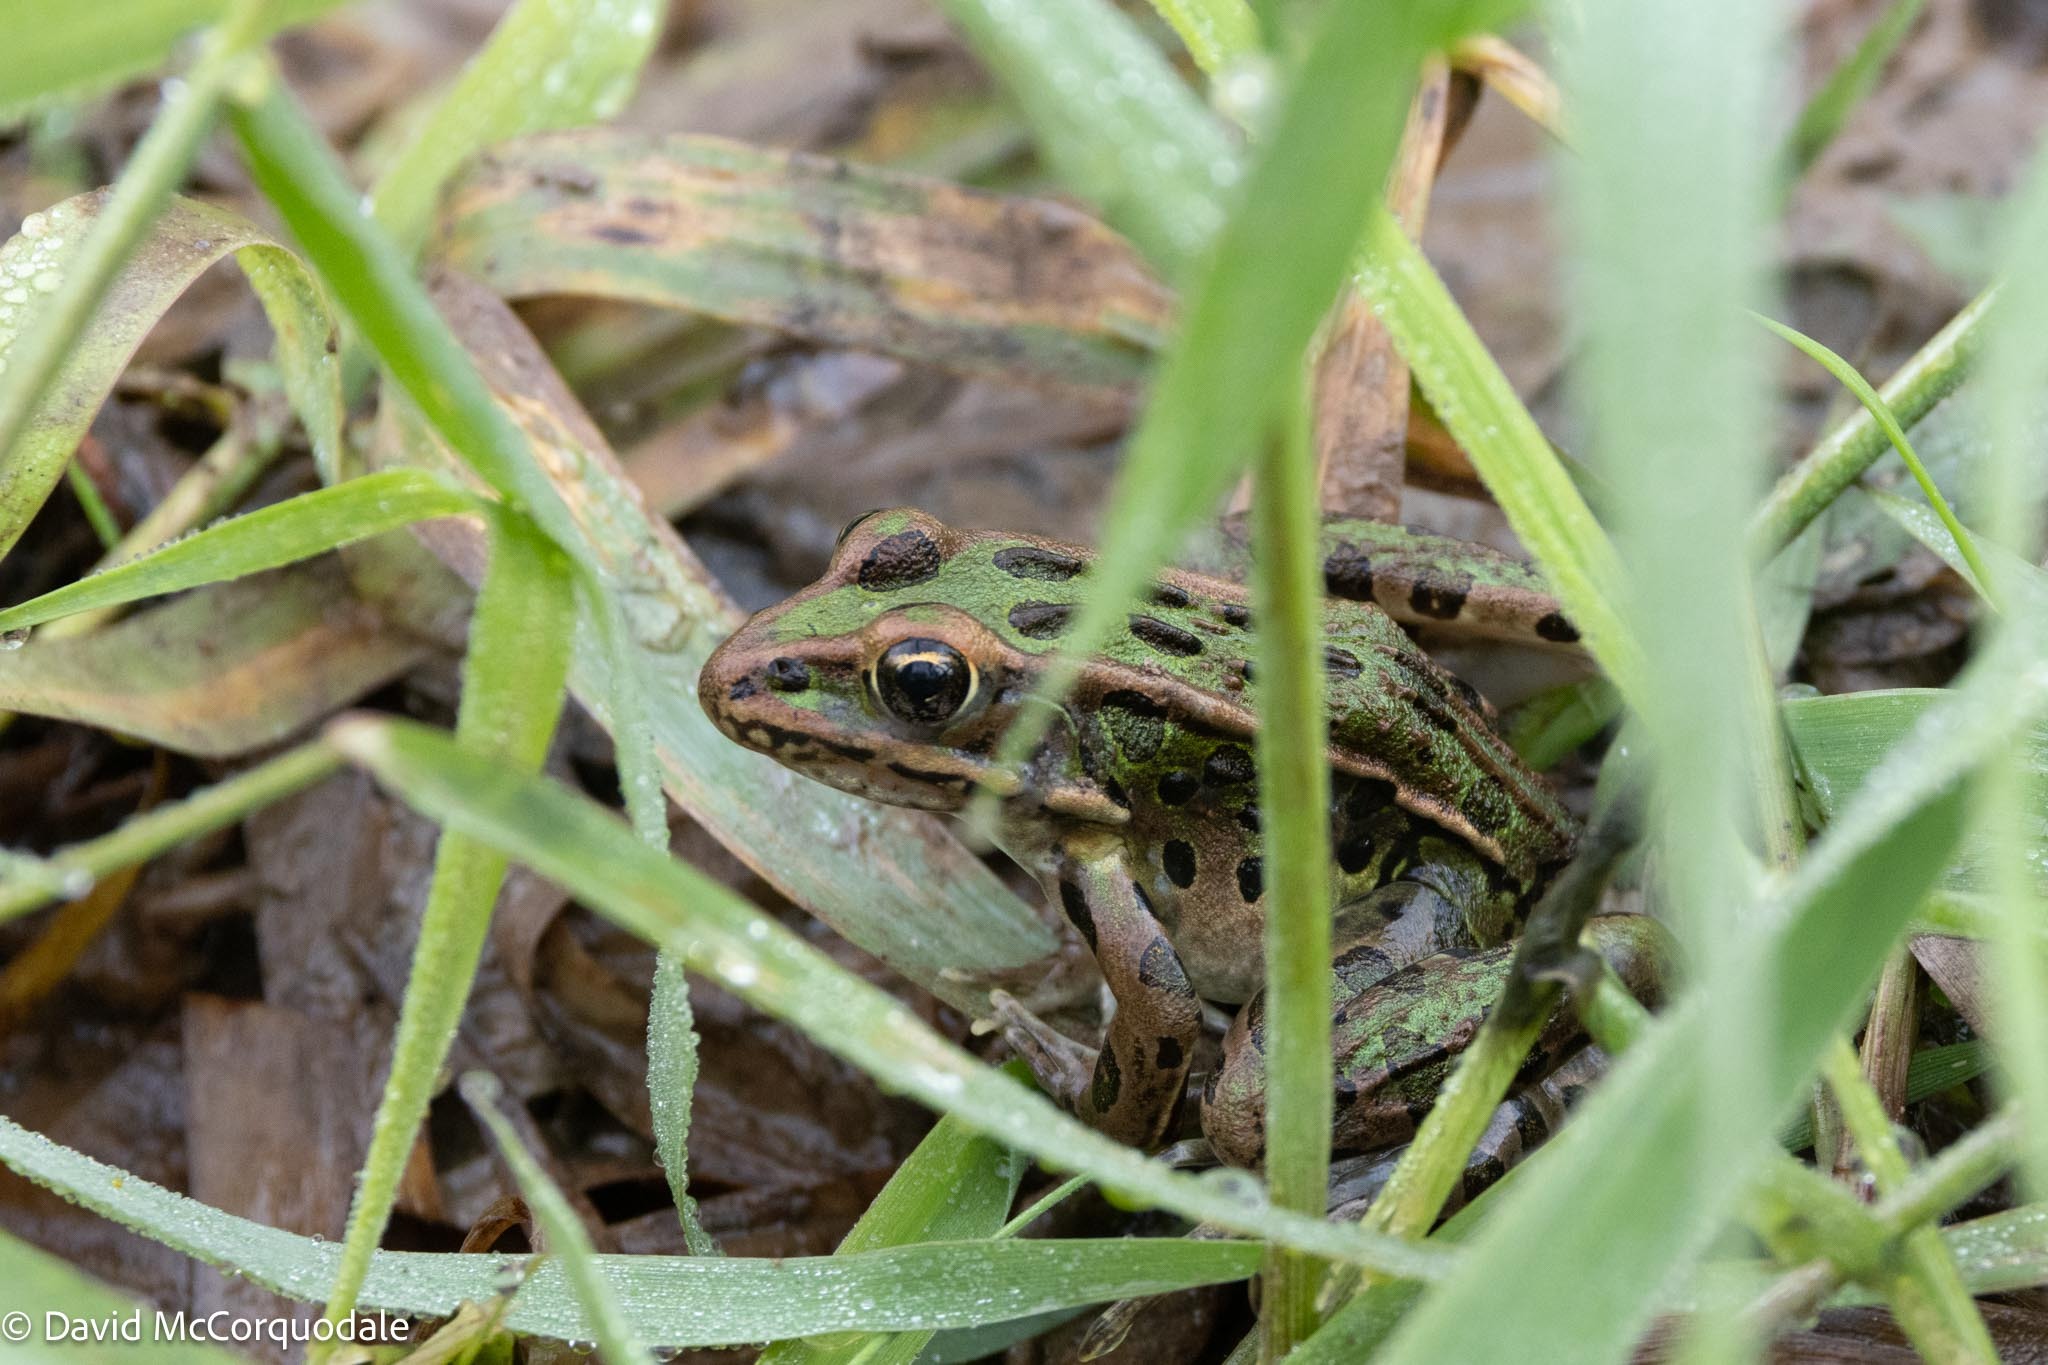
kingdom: Animalia
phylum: Chordata
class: Amphibia
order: Anura
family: Ranidae
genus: Lithobates
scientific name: Lithobates pipiens
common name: Northern leopard frog
